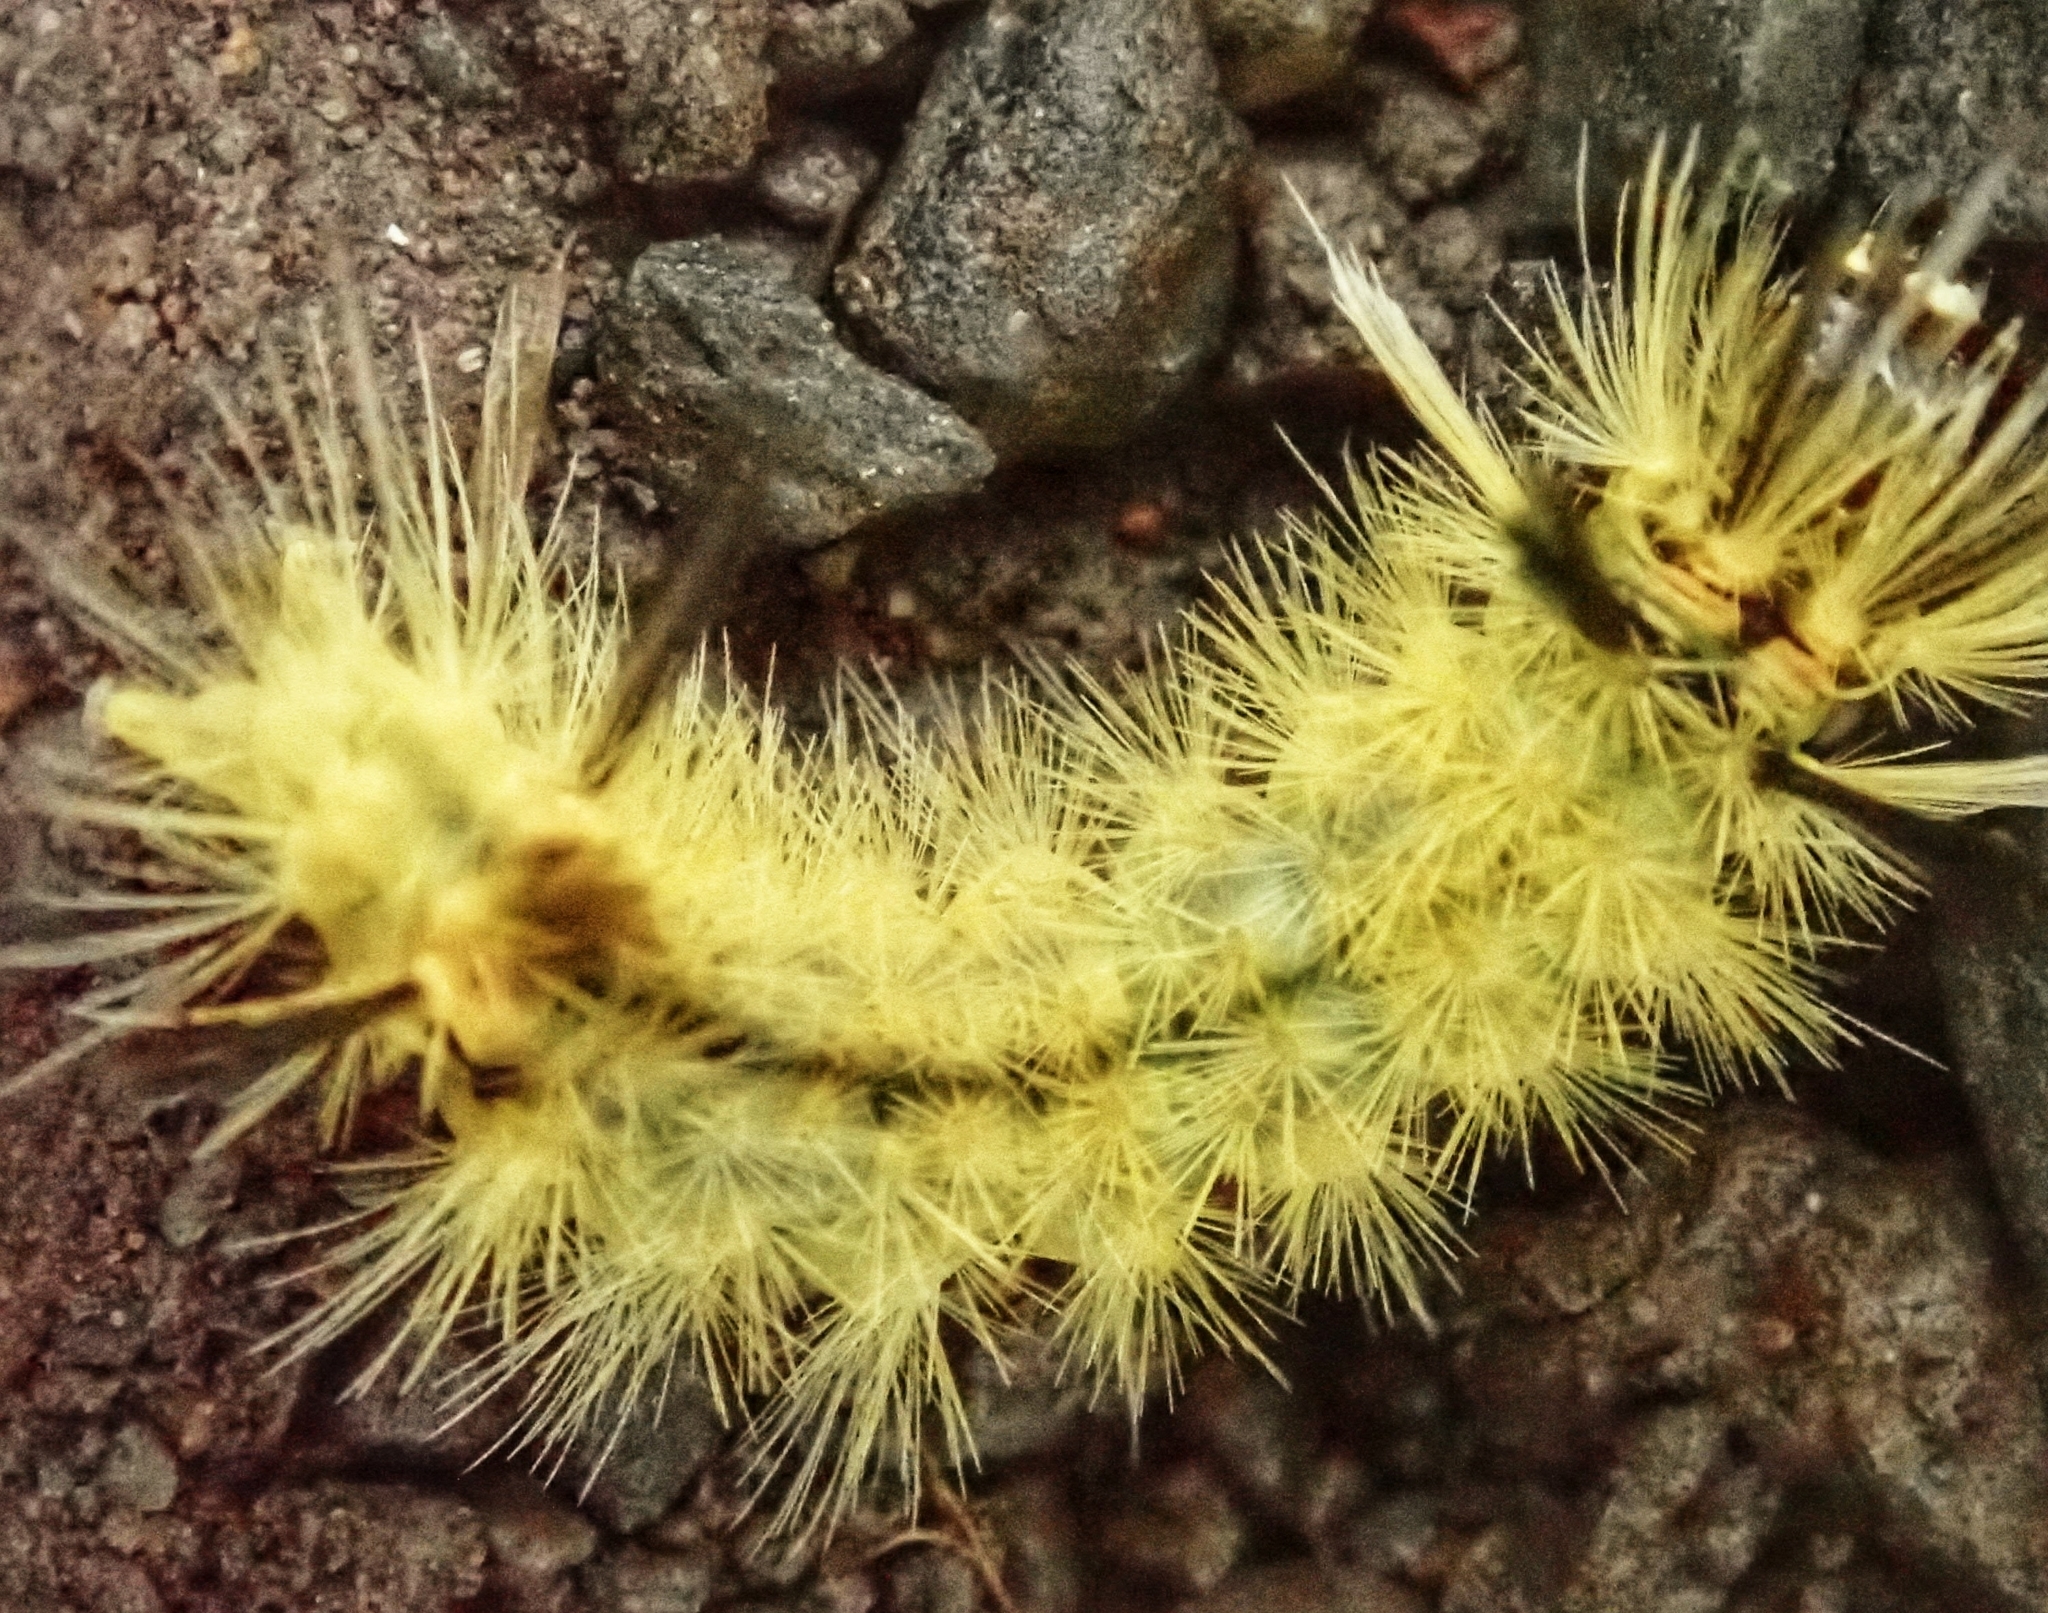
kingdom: Animalia
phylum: Arthropoda
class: Insecta
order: Lepidoptera
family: Erebidae
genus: Halysidota
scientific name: Halysidota tessellaris
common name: Banded tussock moth
